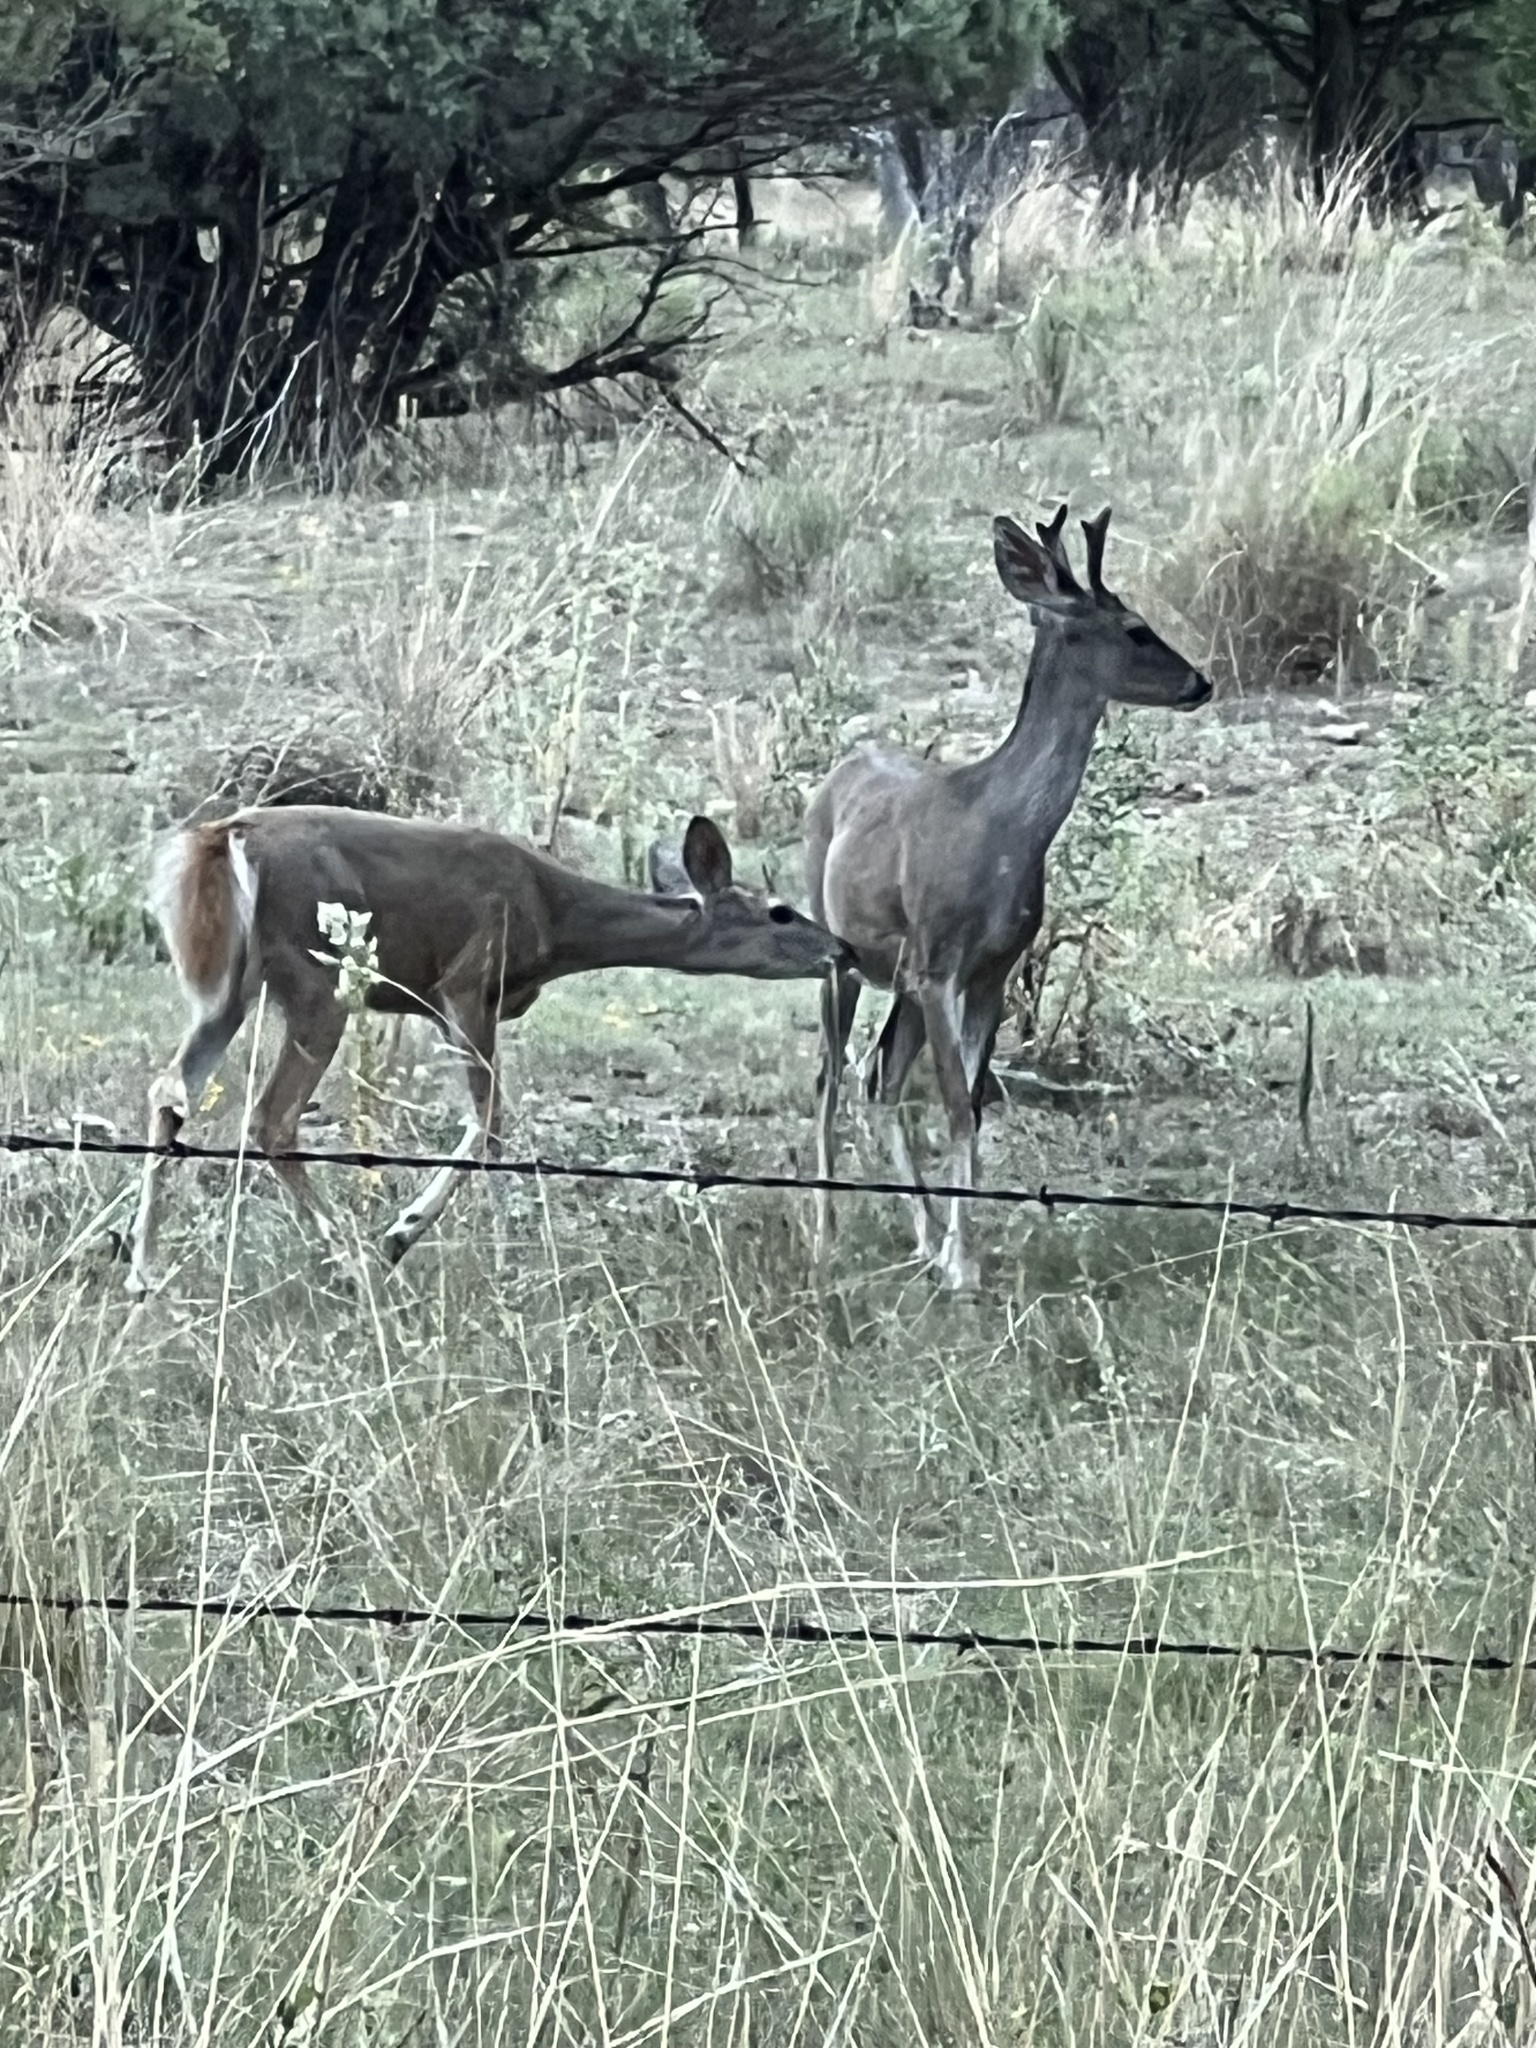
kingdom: Animalia
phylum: Chordata
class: Mammalia
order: Artiodactyla
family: Cervidae
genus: Odocoileus
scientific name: Odocoileus virginianus
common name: White-tailed deer
